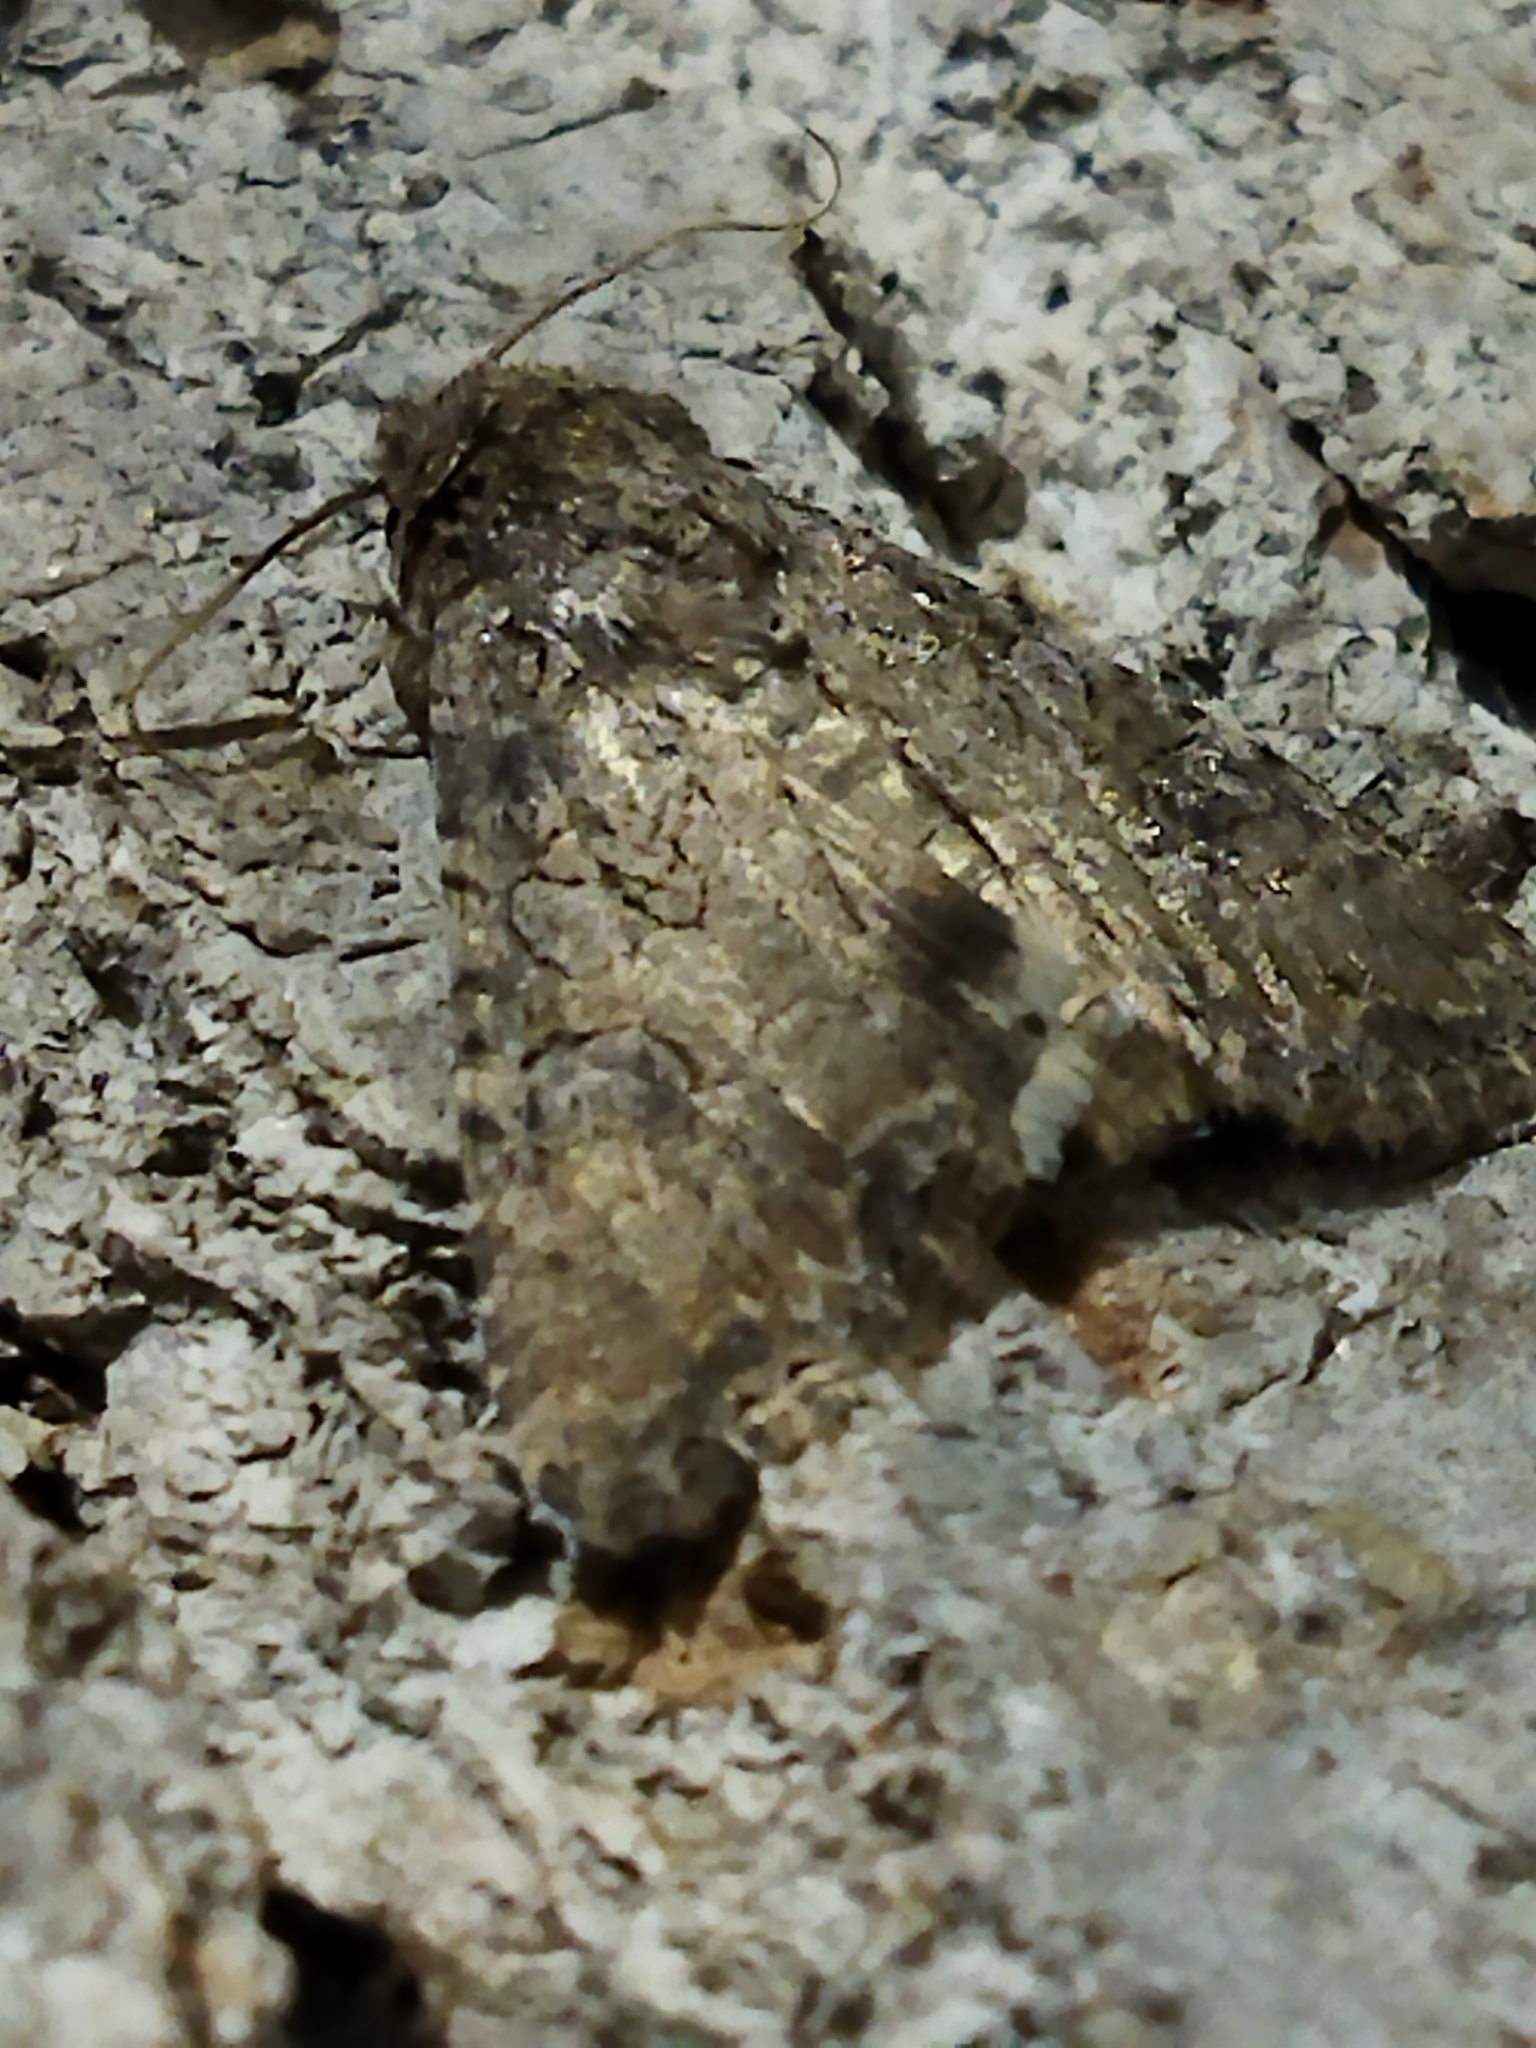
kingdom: Animalia
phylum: Arthropoda
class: Insecta
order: Lepidoptera
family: Noctuidae
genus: Anarta
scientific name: Anarta trifolii
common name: Clover cutworm moth
